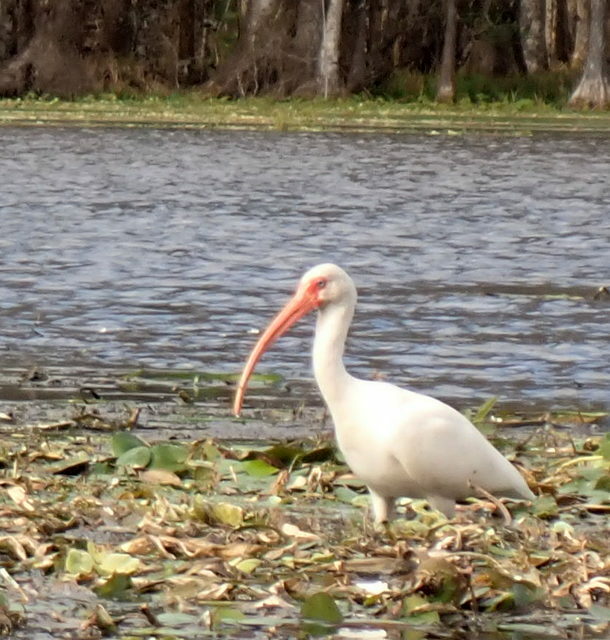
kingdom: Animalia
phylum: Chordata
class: Aves
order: Pelecaniformes
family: Threskiornithidae
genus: Eudocimus
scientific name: Eudocimus albus
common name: White ibis
